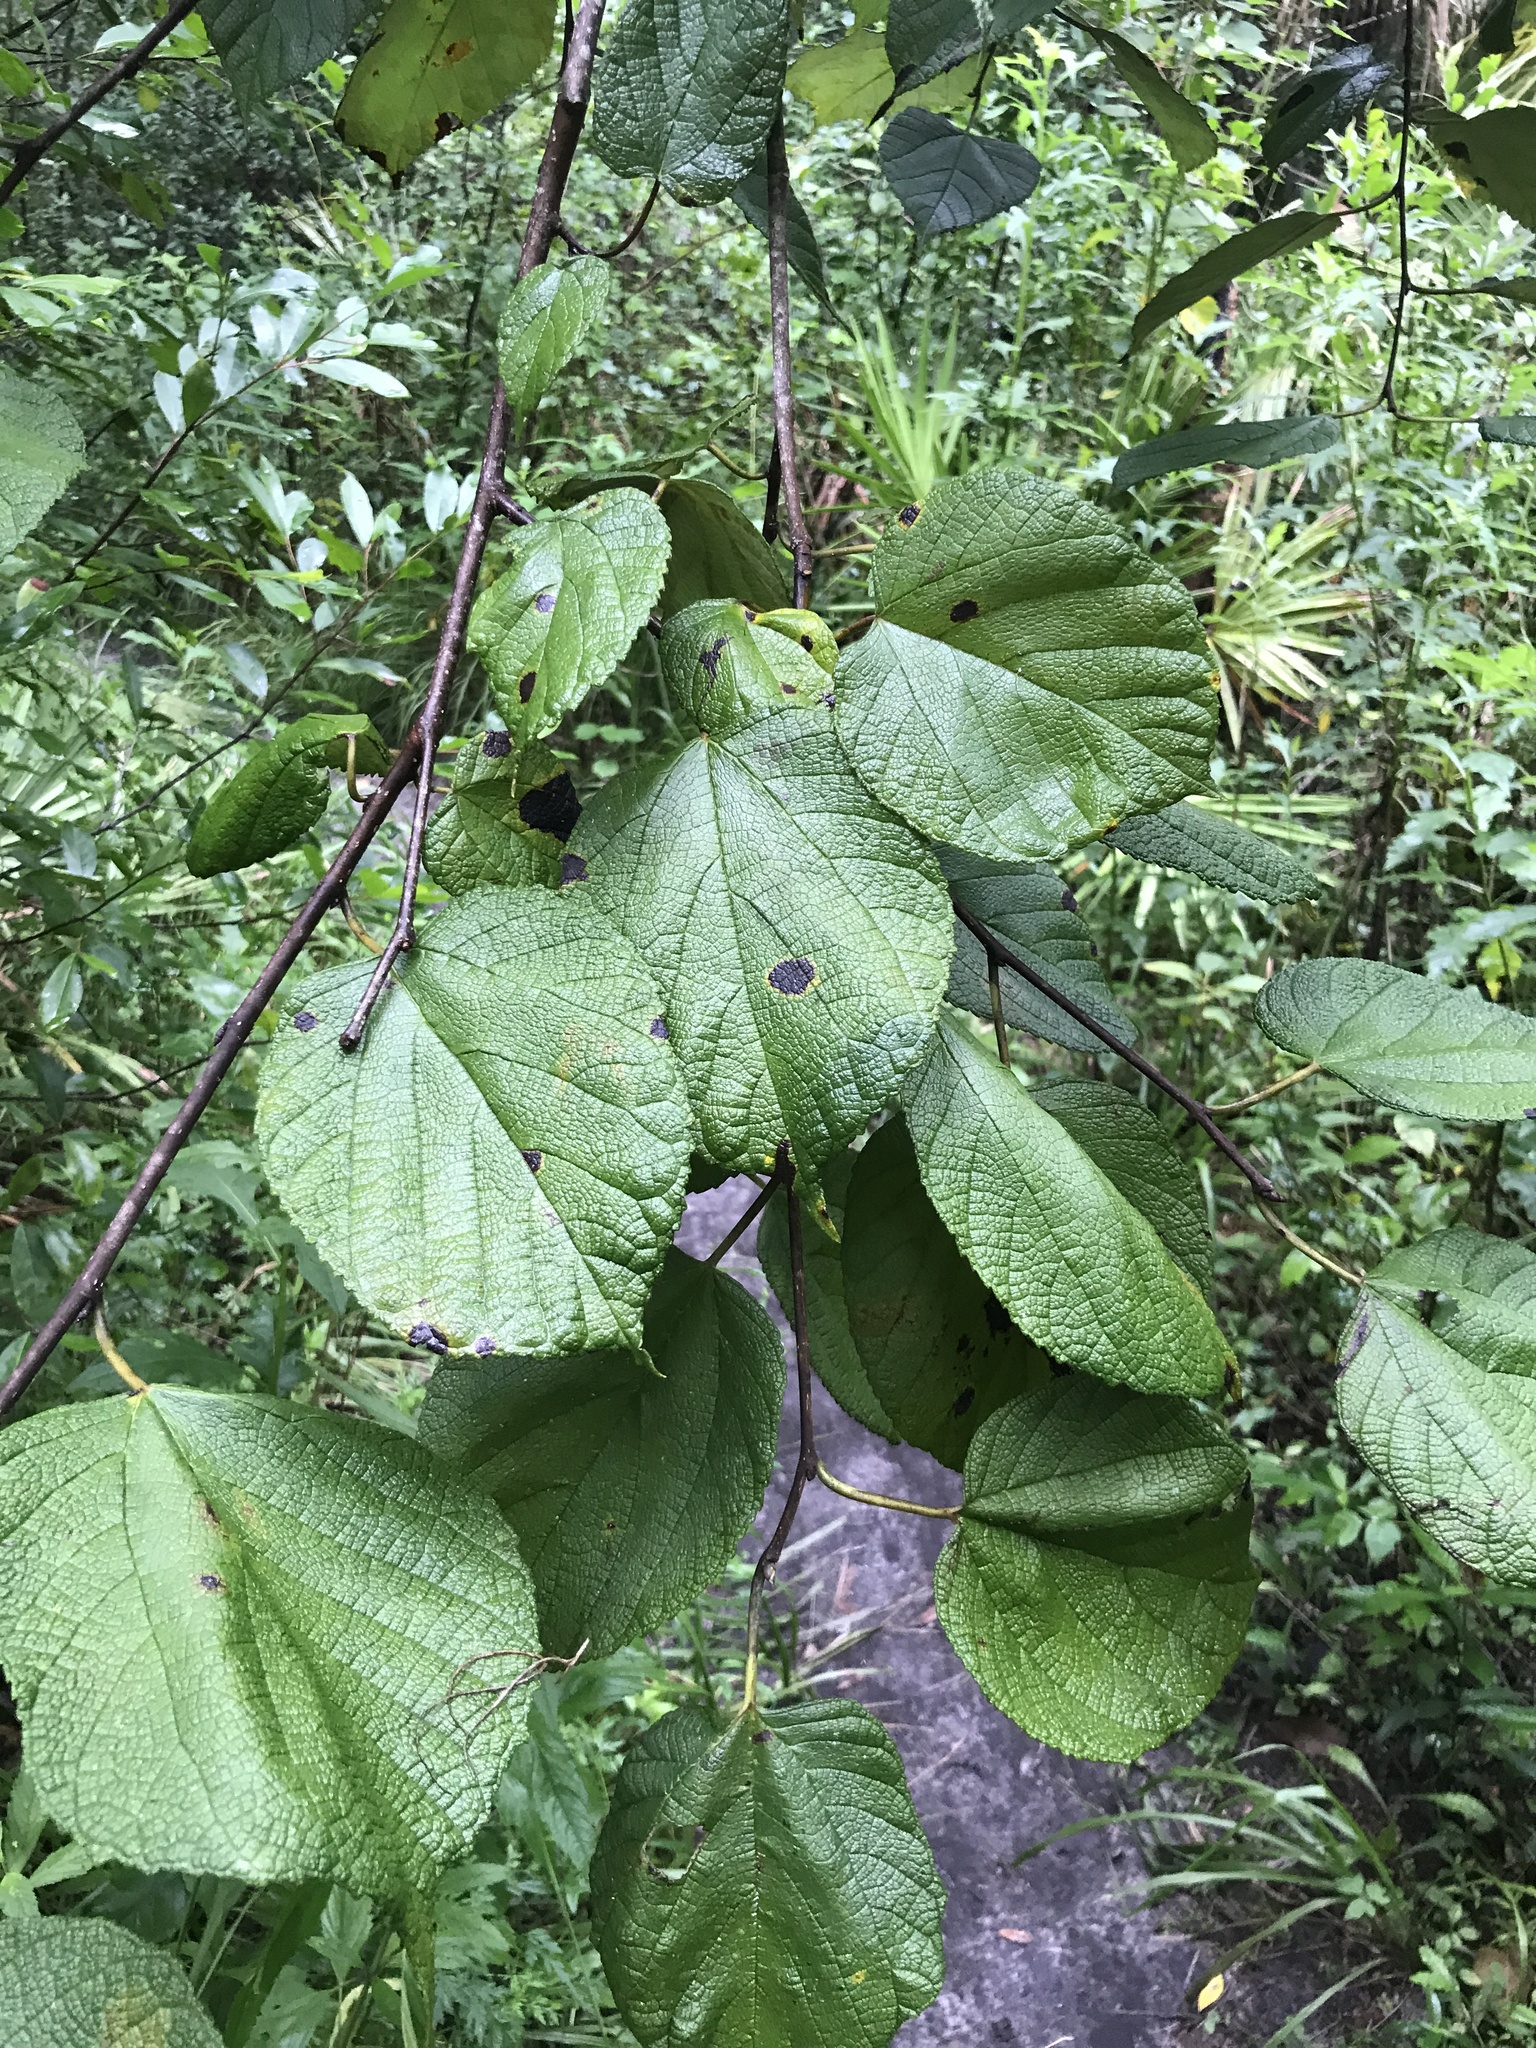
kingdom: Plantae
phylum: Tracheophyta
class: Magnoliopsida
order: Rosales
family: Moraceae
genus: Morus
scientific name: Morus rubra
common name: Red mulberry
